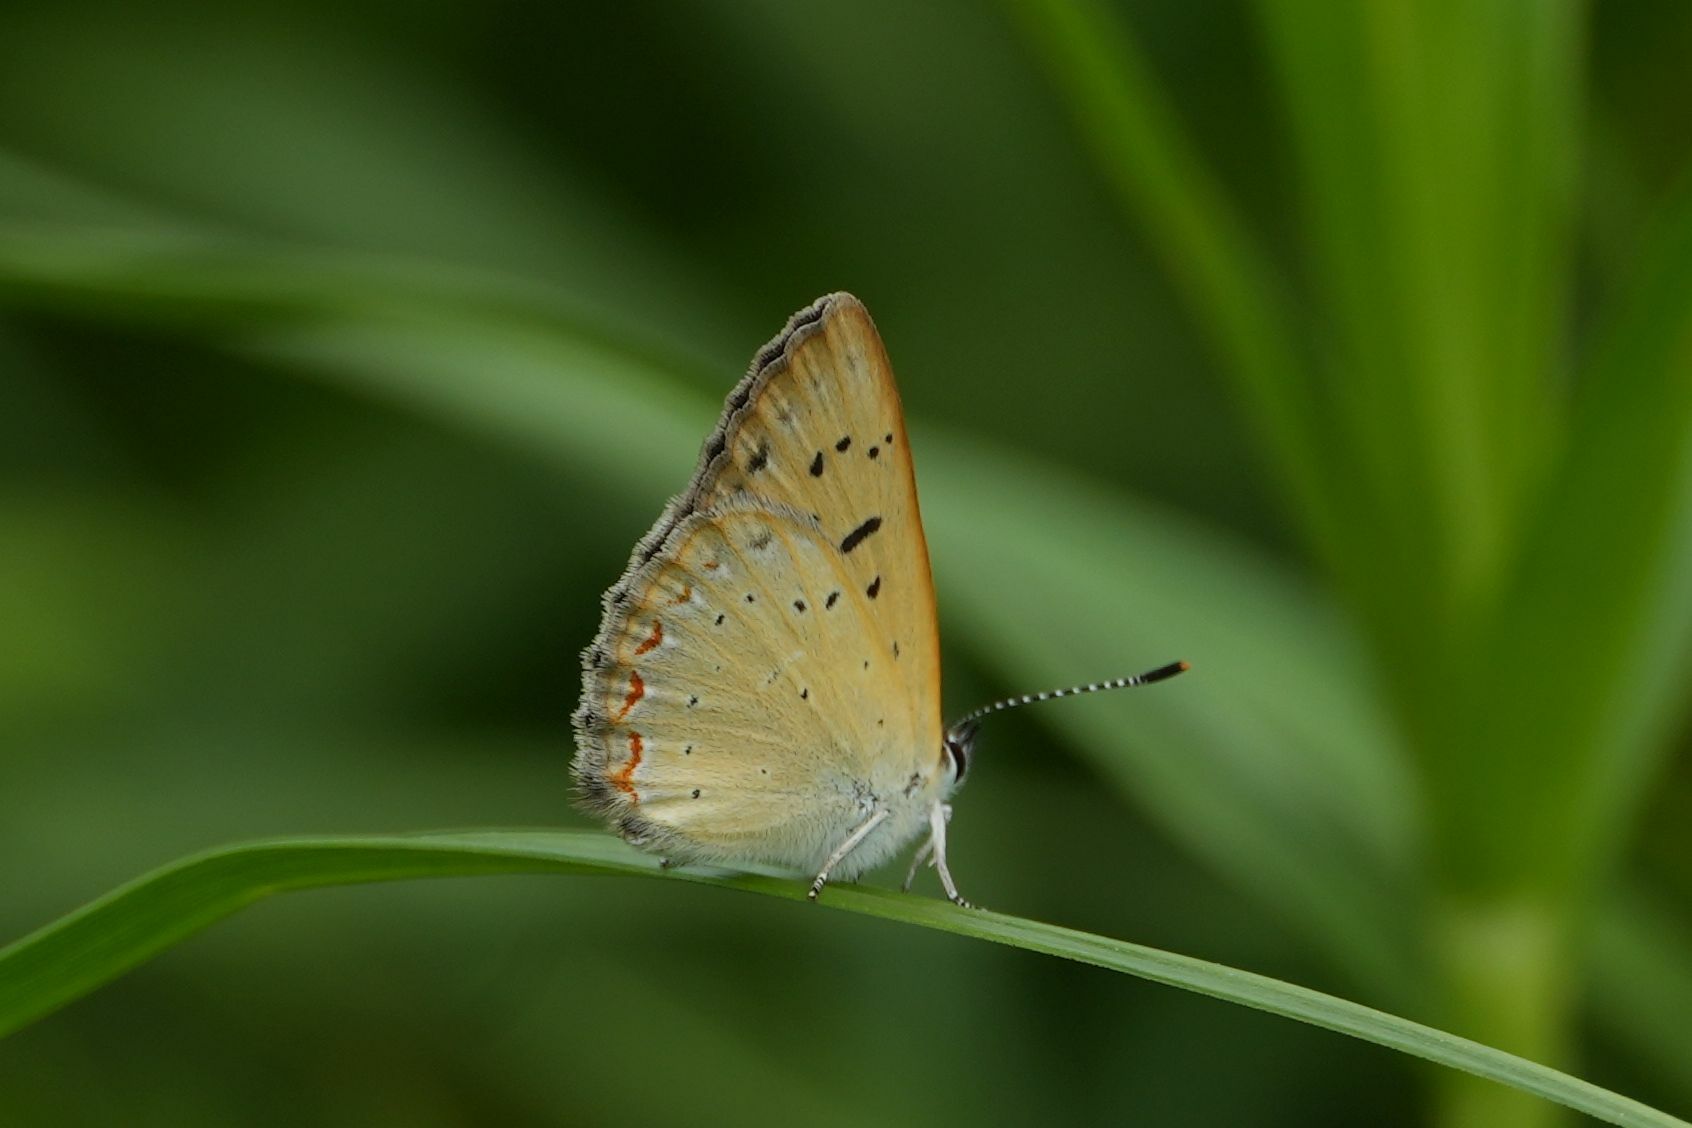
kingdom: Animalia
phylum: Arthropoda
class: Insecta
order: Lepidoptera
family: Lycaenidae
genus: Tharsalea
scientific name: Tharsalea epixanthe
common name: Bog copper
